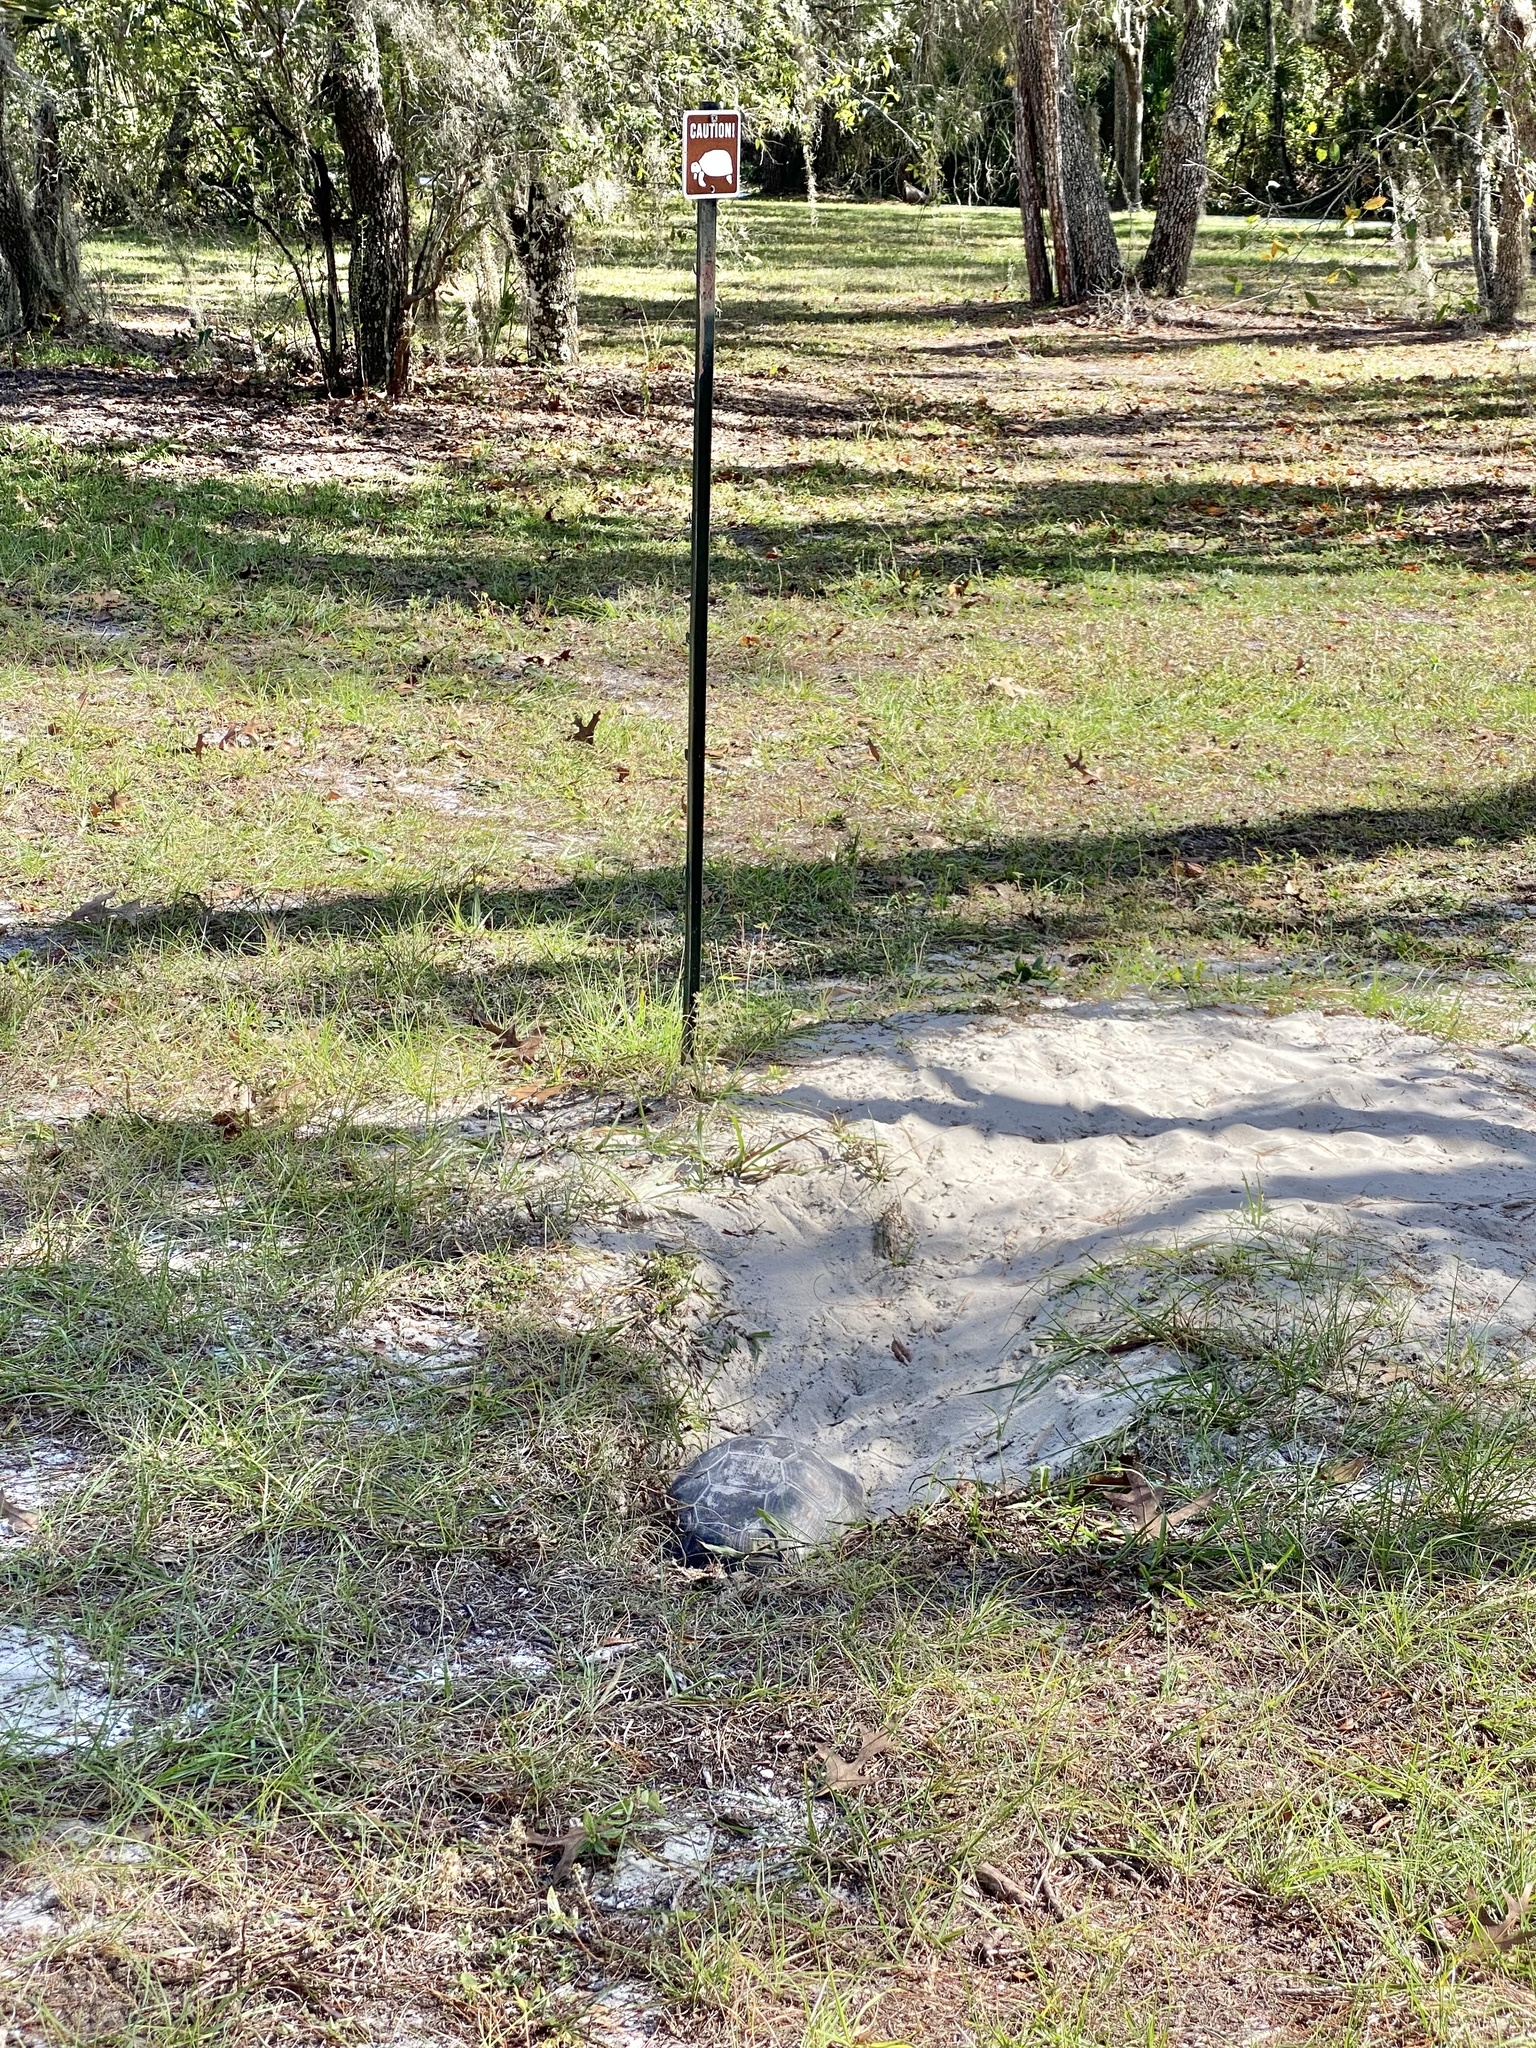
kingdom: Animalia
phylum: Chordata
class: Testudines
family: Testudinidae
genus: Gopherus
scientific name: Gopherus polyphemus
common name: Florida gopher tortoise
